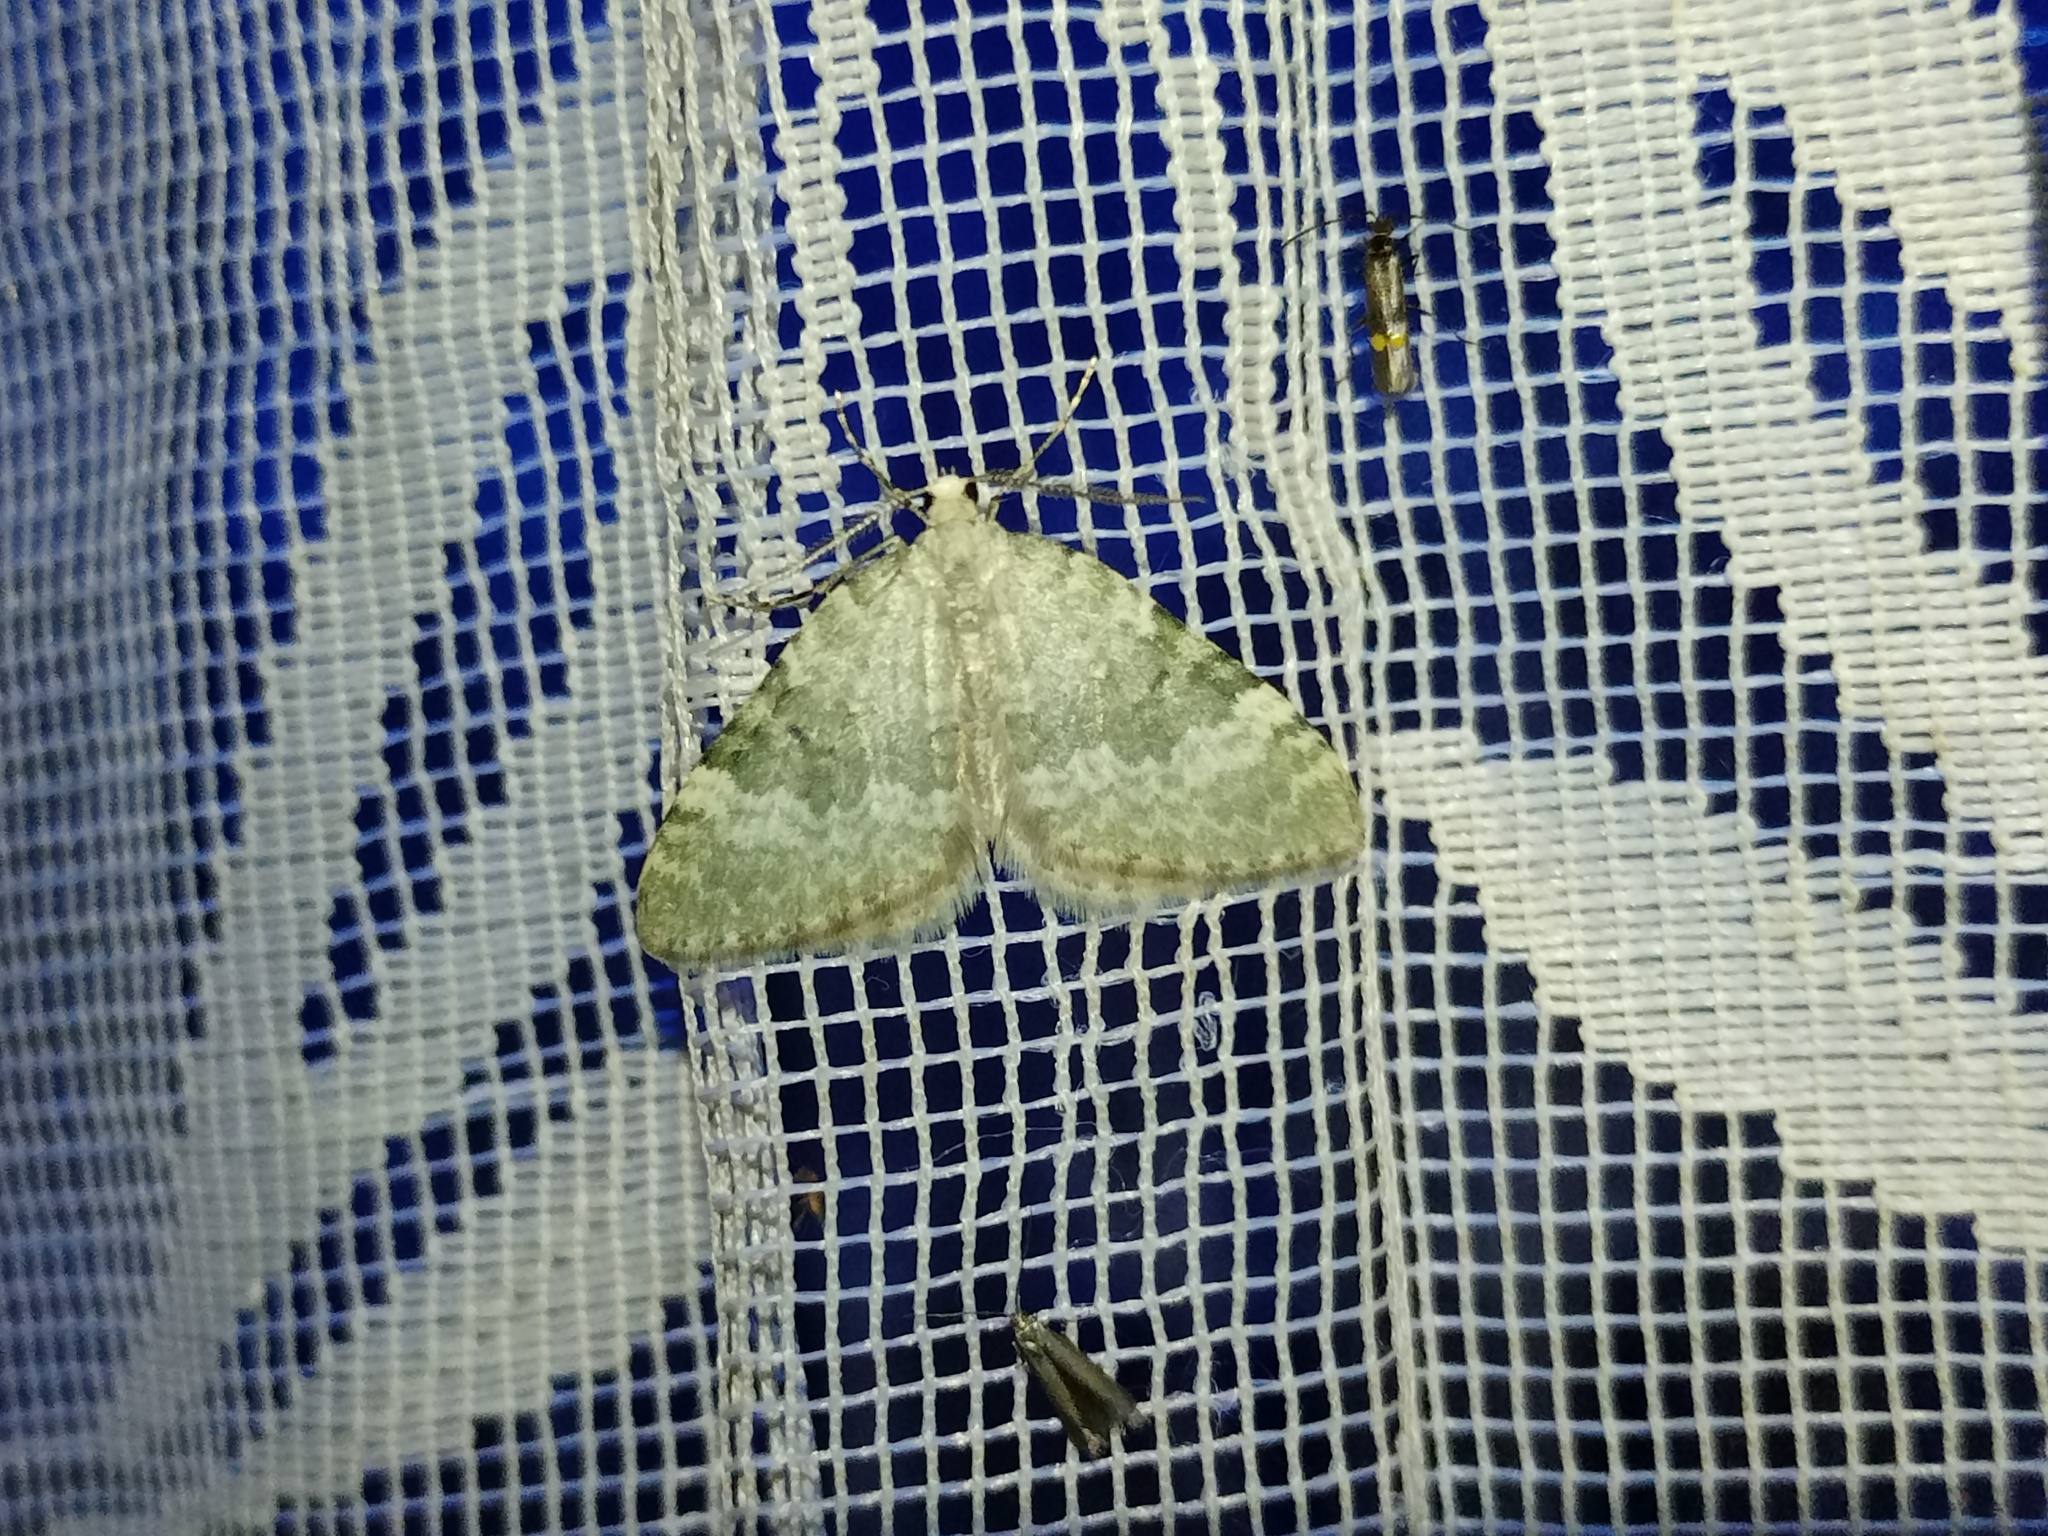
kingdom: Animalia
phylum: Arthropoda
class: Insecta
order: Lepidoptera
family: Geometridae
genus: Colostygia
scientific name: Colostygia aqueata
